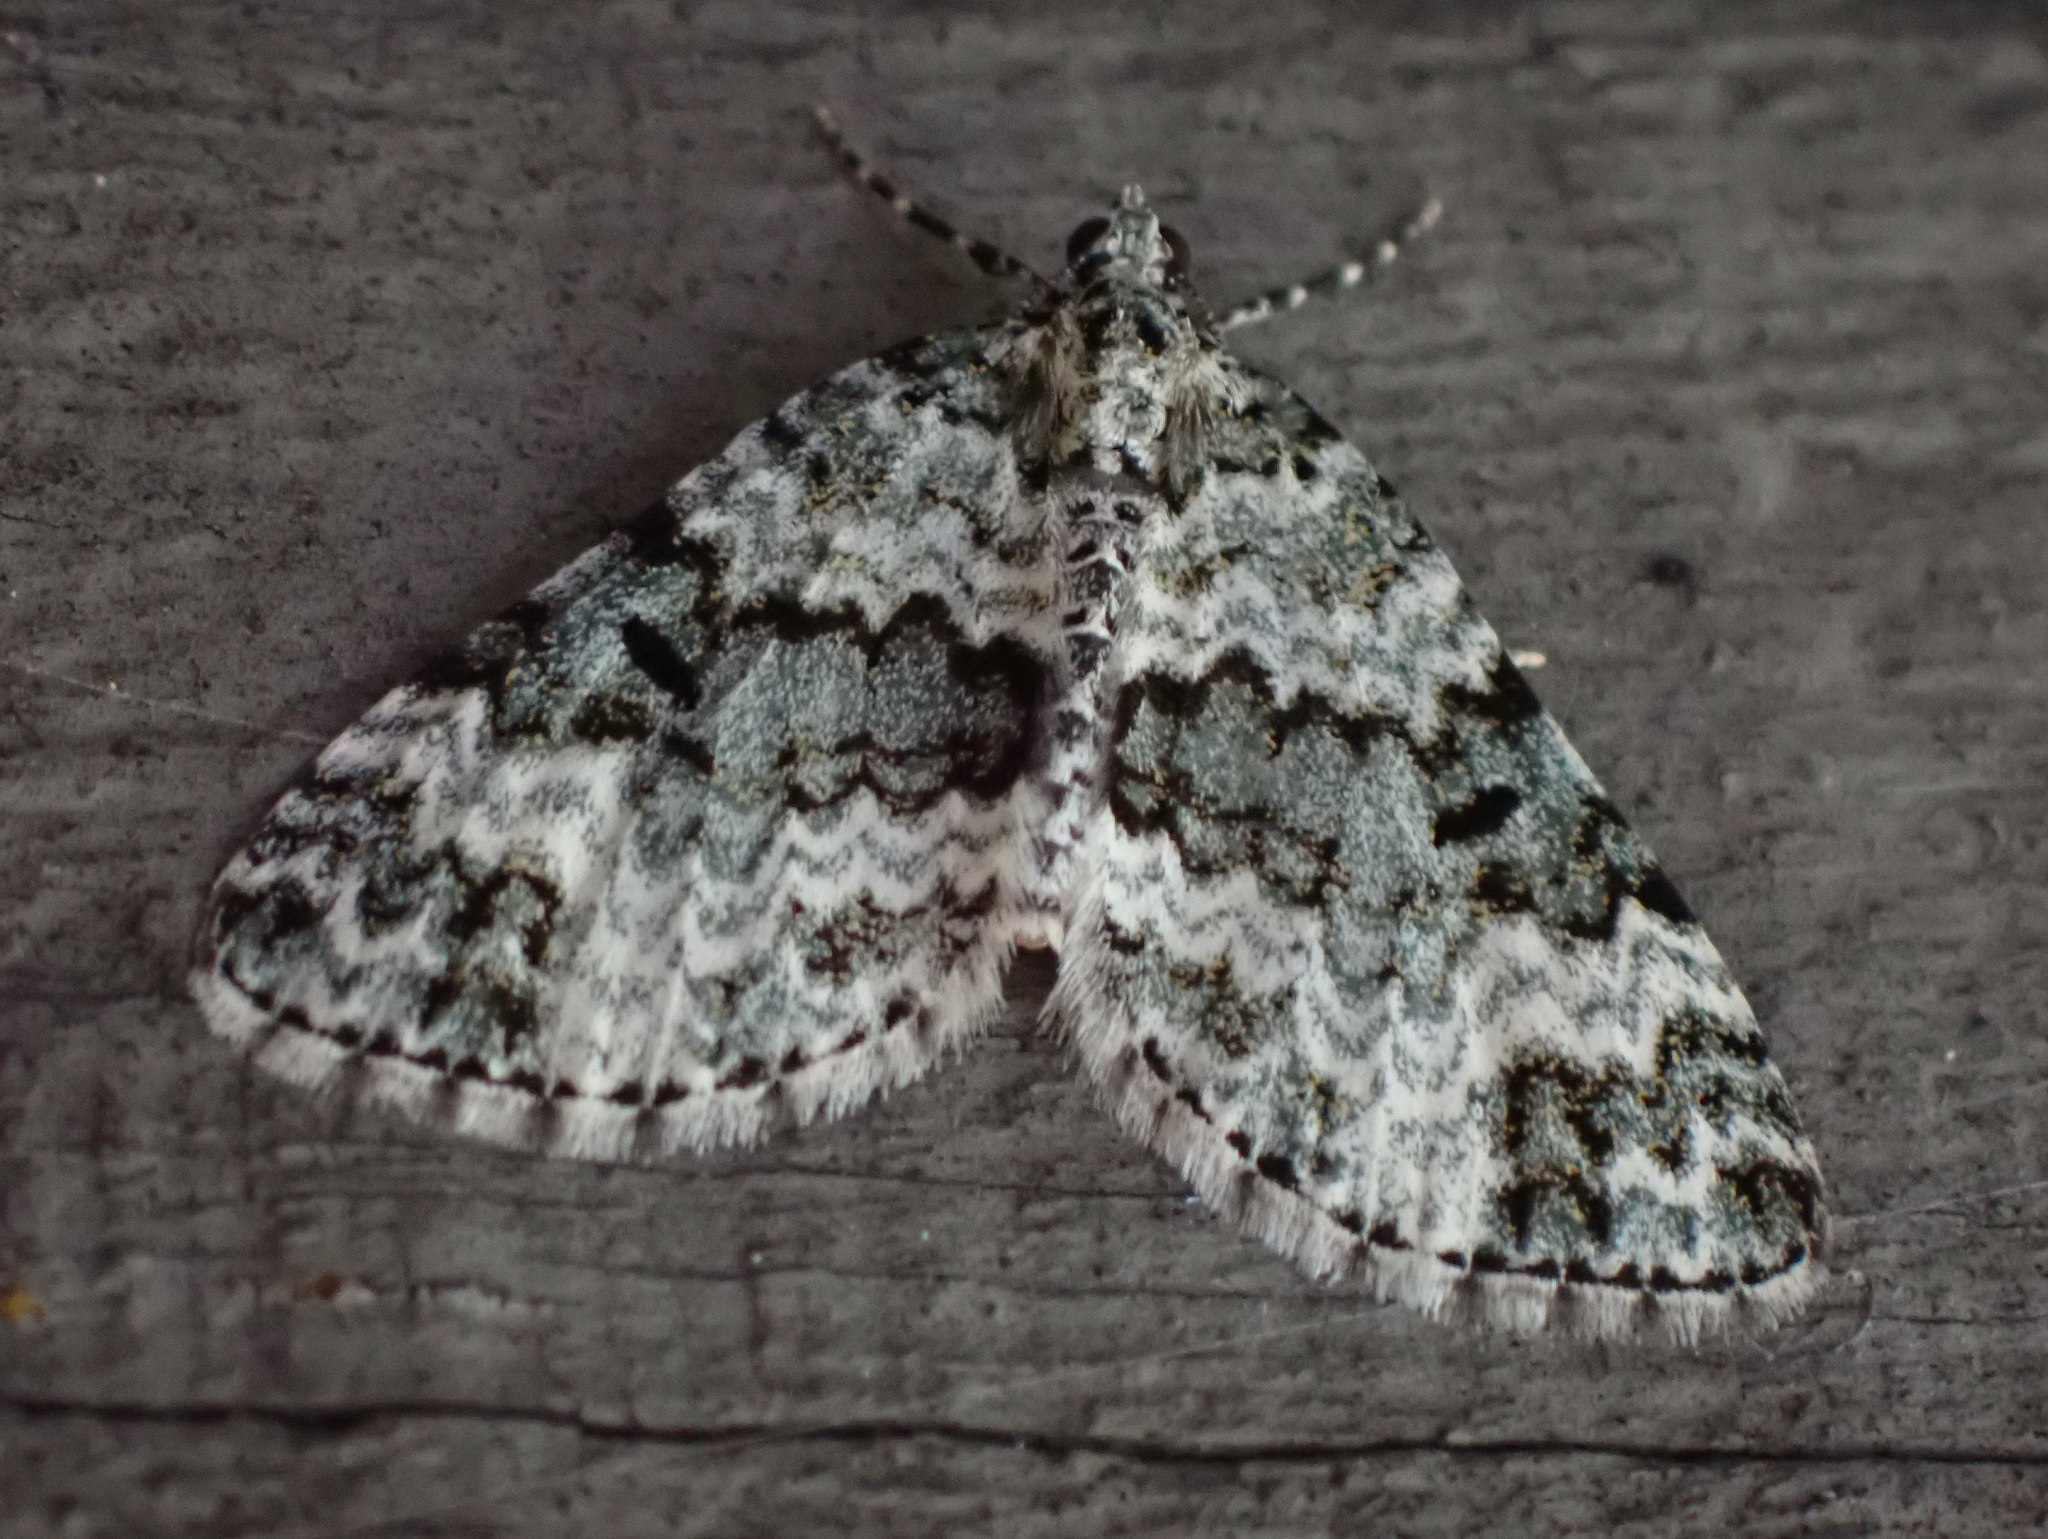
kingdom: Animalia
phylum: Arthropoda
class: Insecta
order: Lepidoptera
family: Geometridae
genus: Spargania
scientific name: Spargania magnoliata
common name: Double-banded carpet
